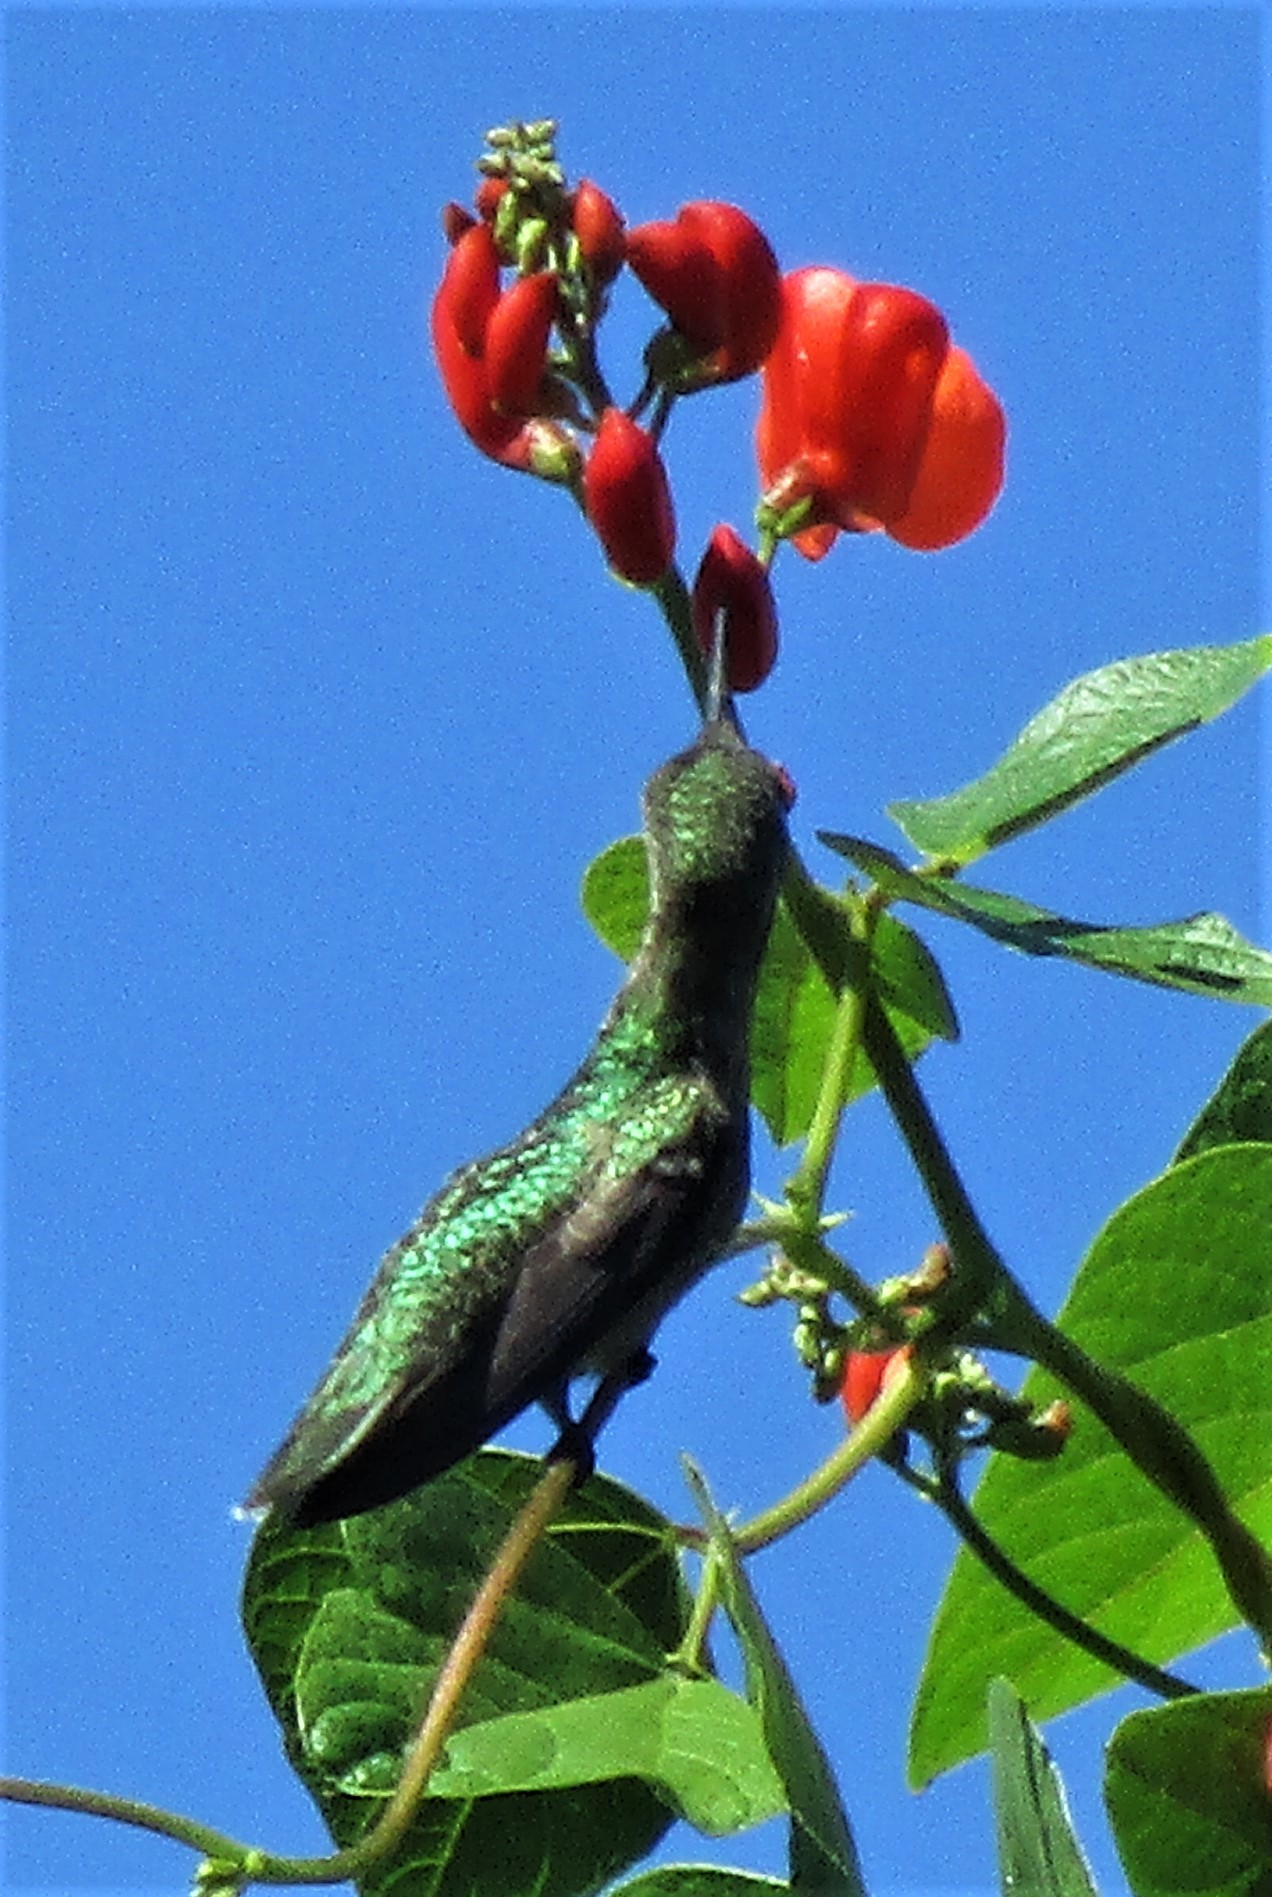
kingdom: Animalia
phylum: Chordata
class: Aves
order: Apodiformes
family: Trochilidae
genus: Calypte
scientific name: Calypte anna
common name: Anna's hummingbird
